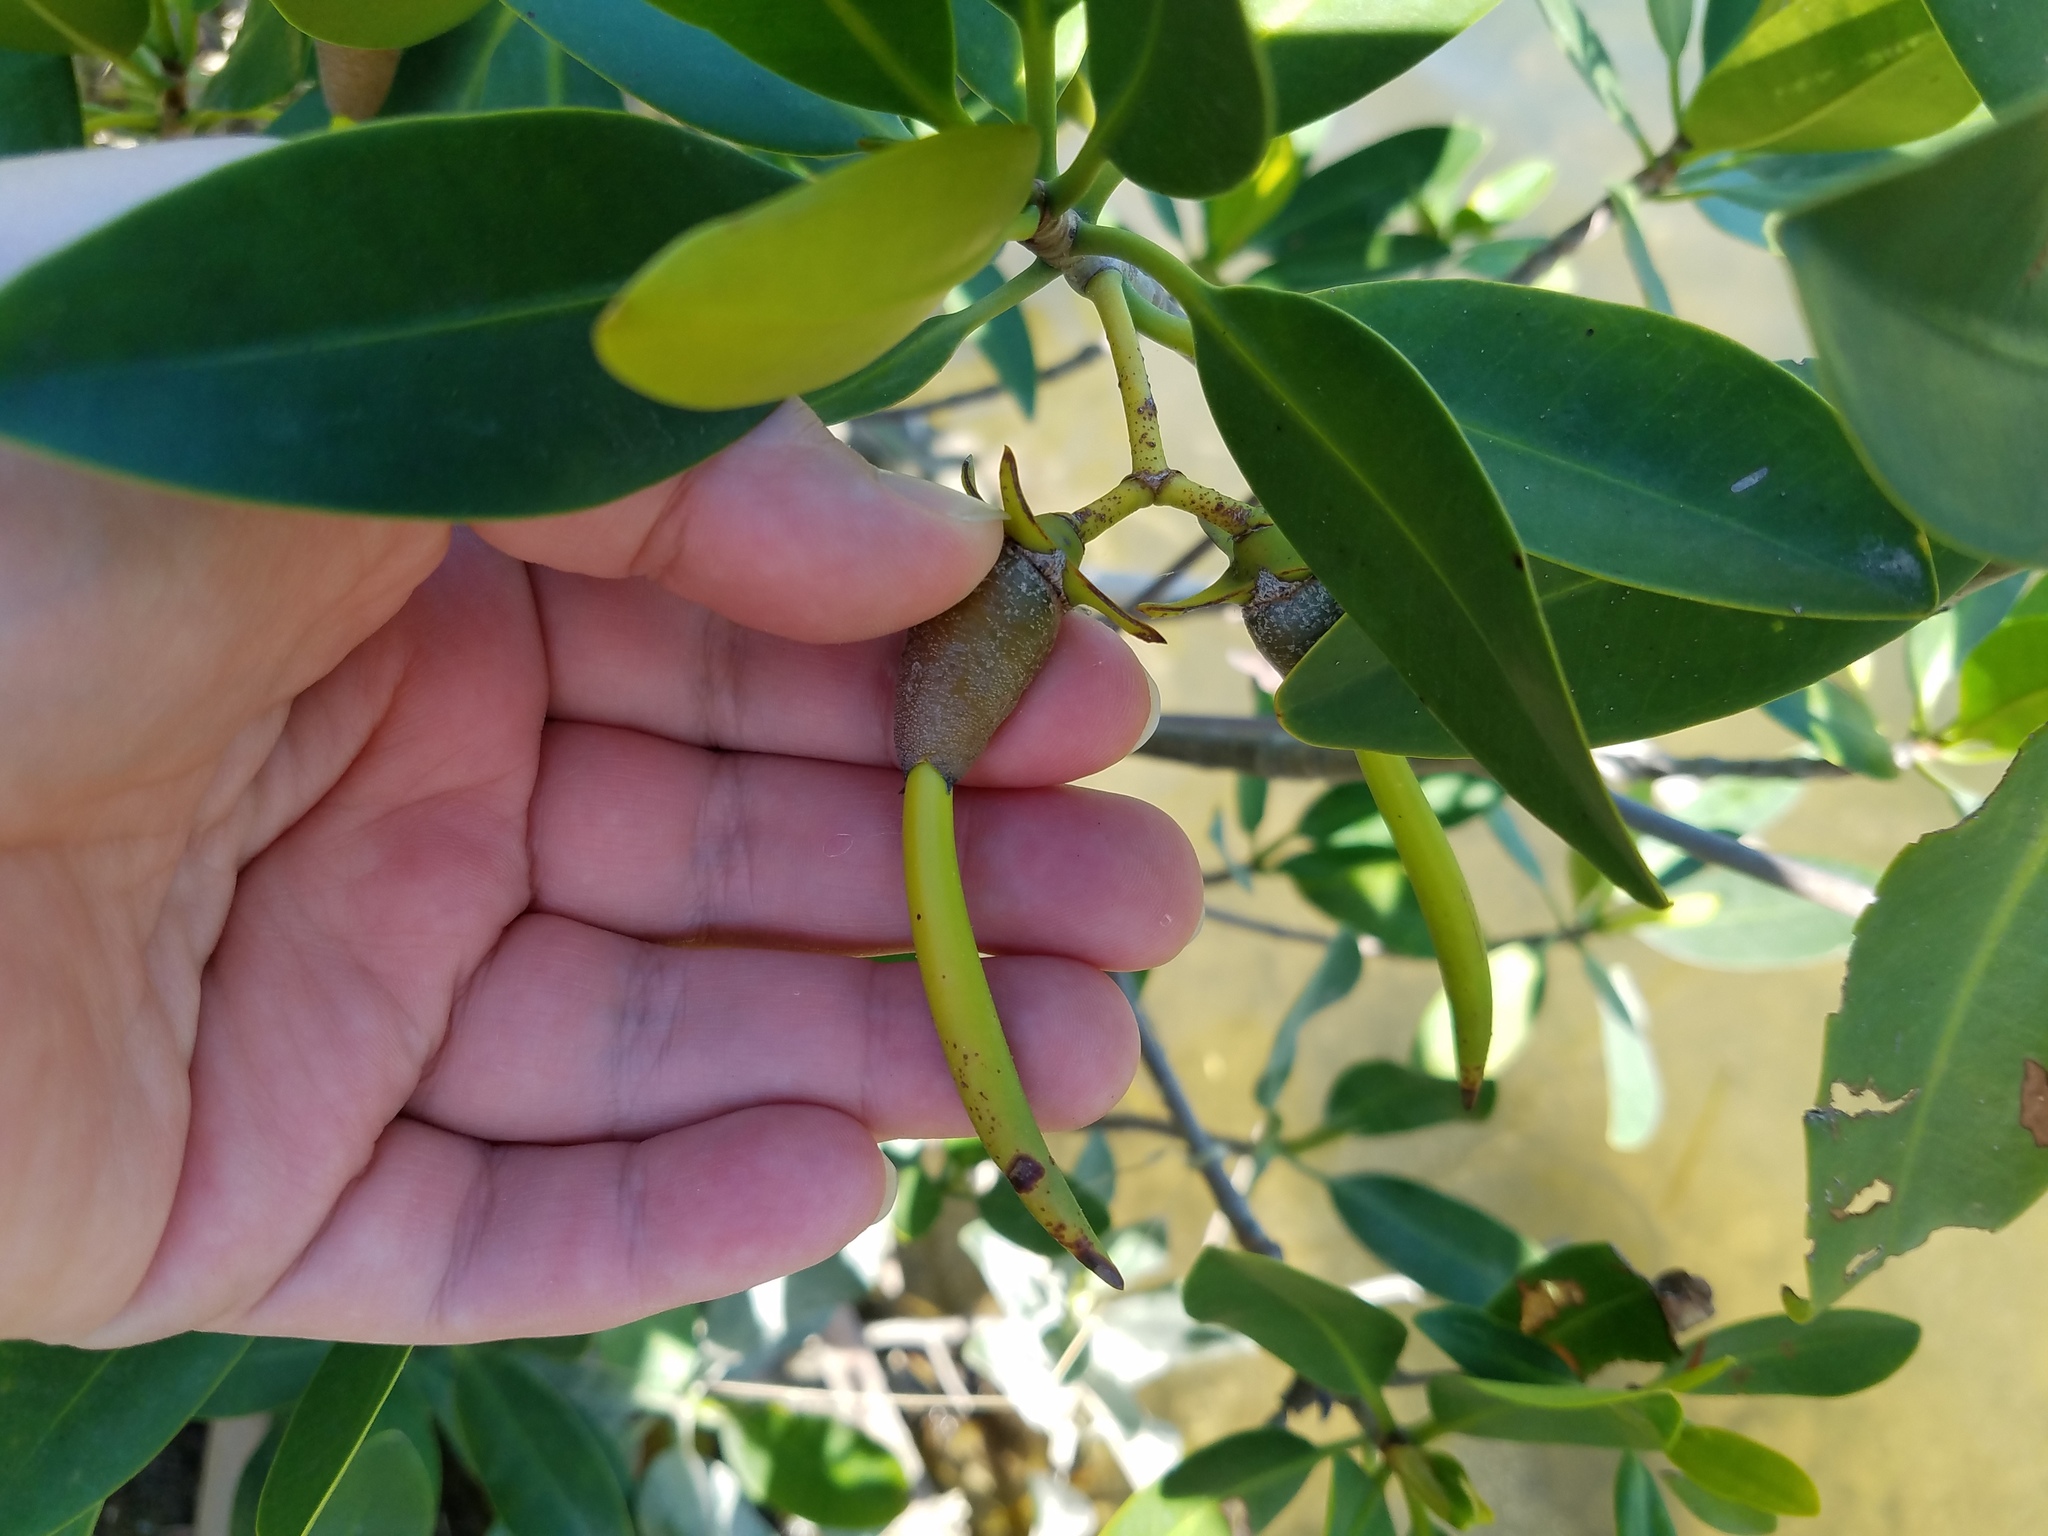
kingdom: Plantae
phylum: Tracheophyta
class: Magnoliopsida
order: Malpighiales
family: Rhizophoraceae
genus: Rhizophora
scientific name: Rhizophora mangle
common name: Red mangrove
